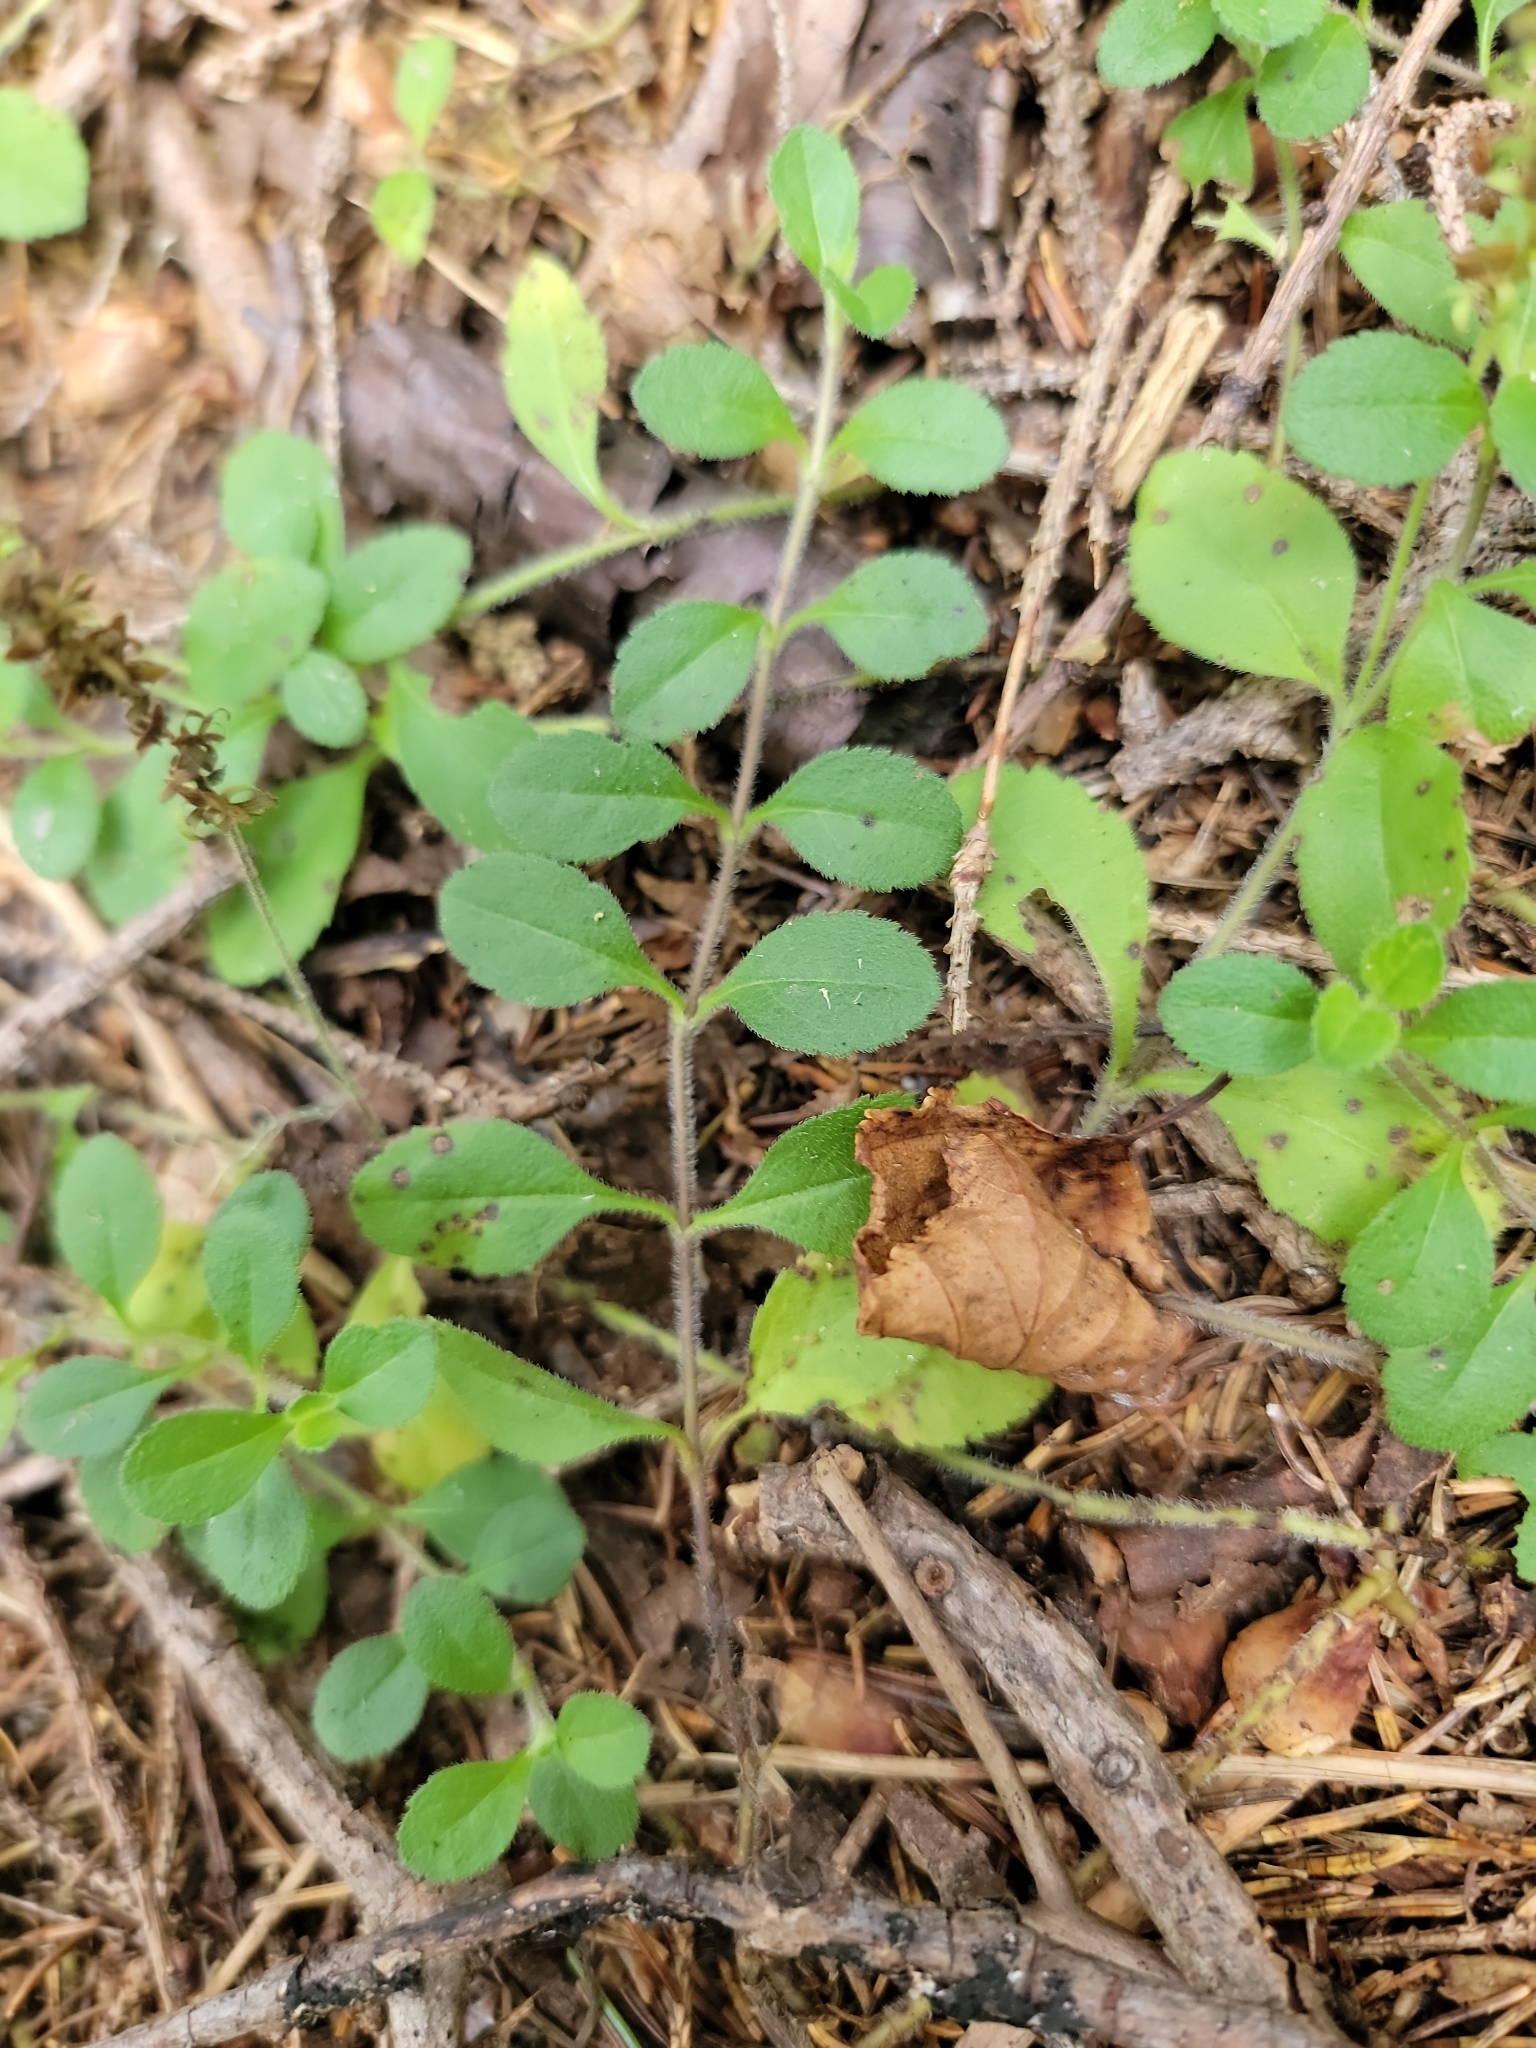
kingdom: Plantae
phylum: Tracheophyta
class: Magnoliopsida
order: Lamiales
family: Plantaginaceae
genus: Veronica
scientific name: Veronica officinalis
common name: Common speedwell
